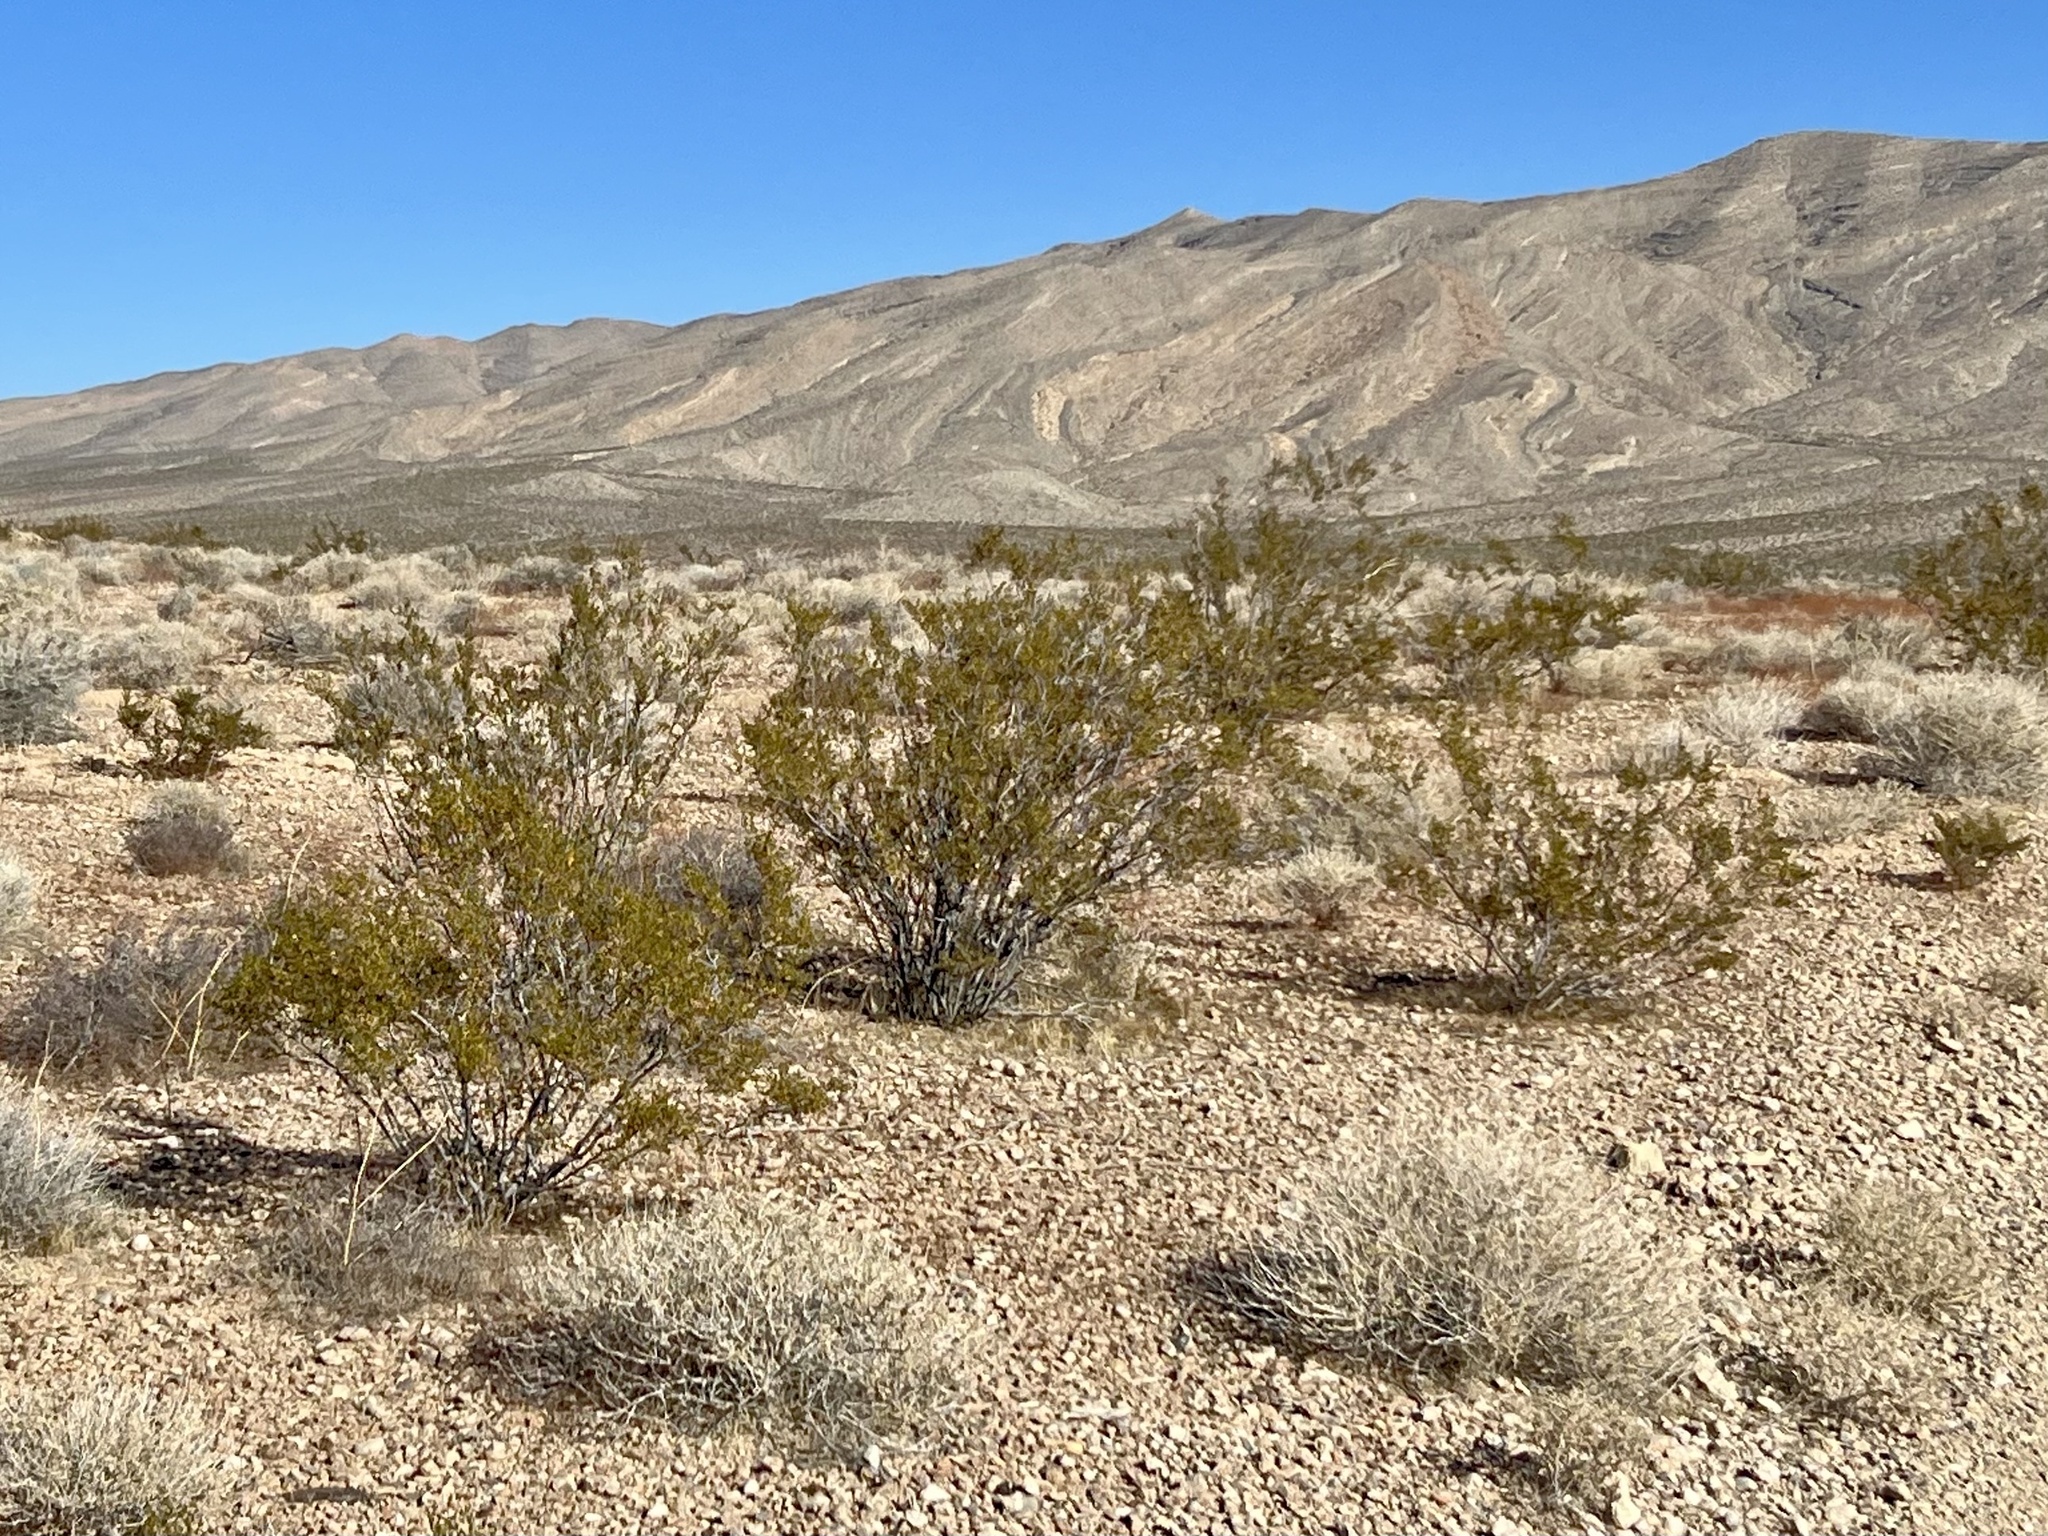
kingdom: Plantae
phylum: Tracheophyta
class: Magnoliopsida
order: Zygophyllales
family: Zygophyllaceae
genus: Larrea
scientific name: Larrea tridentata
